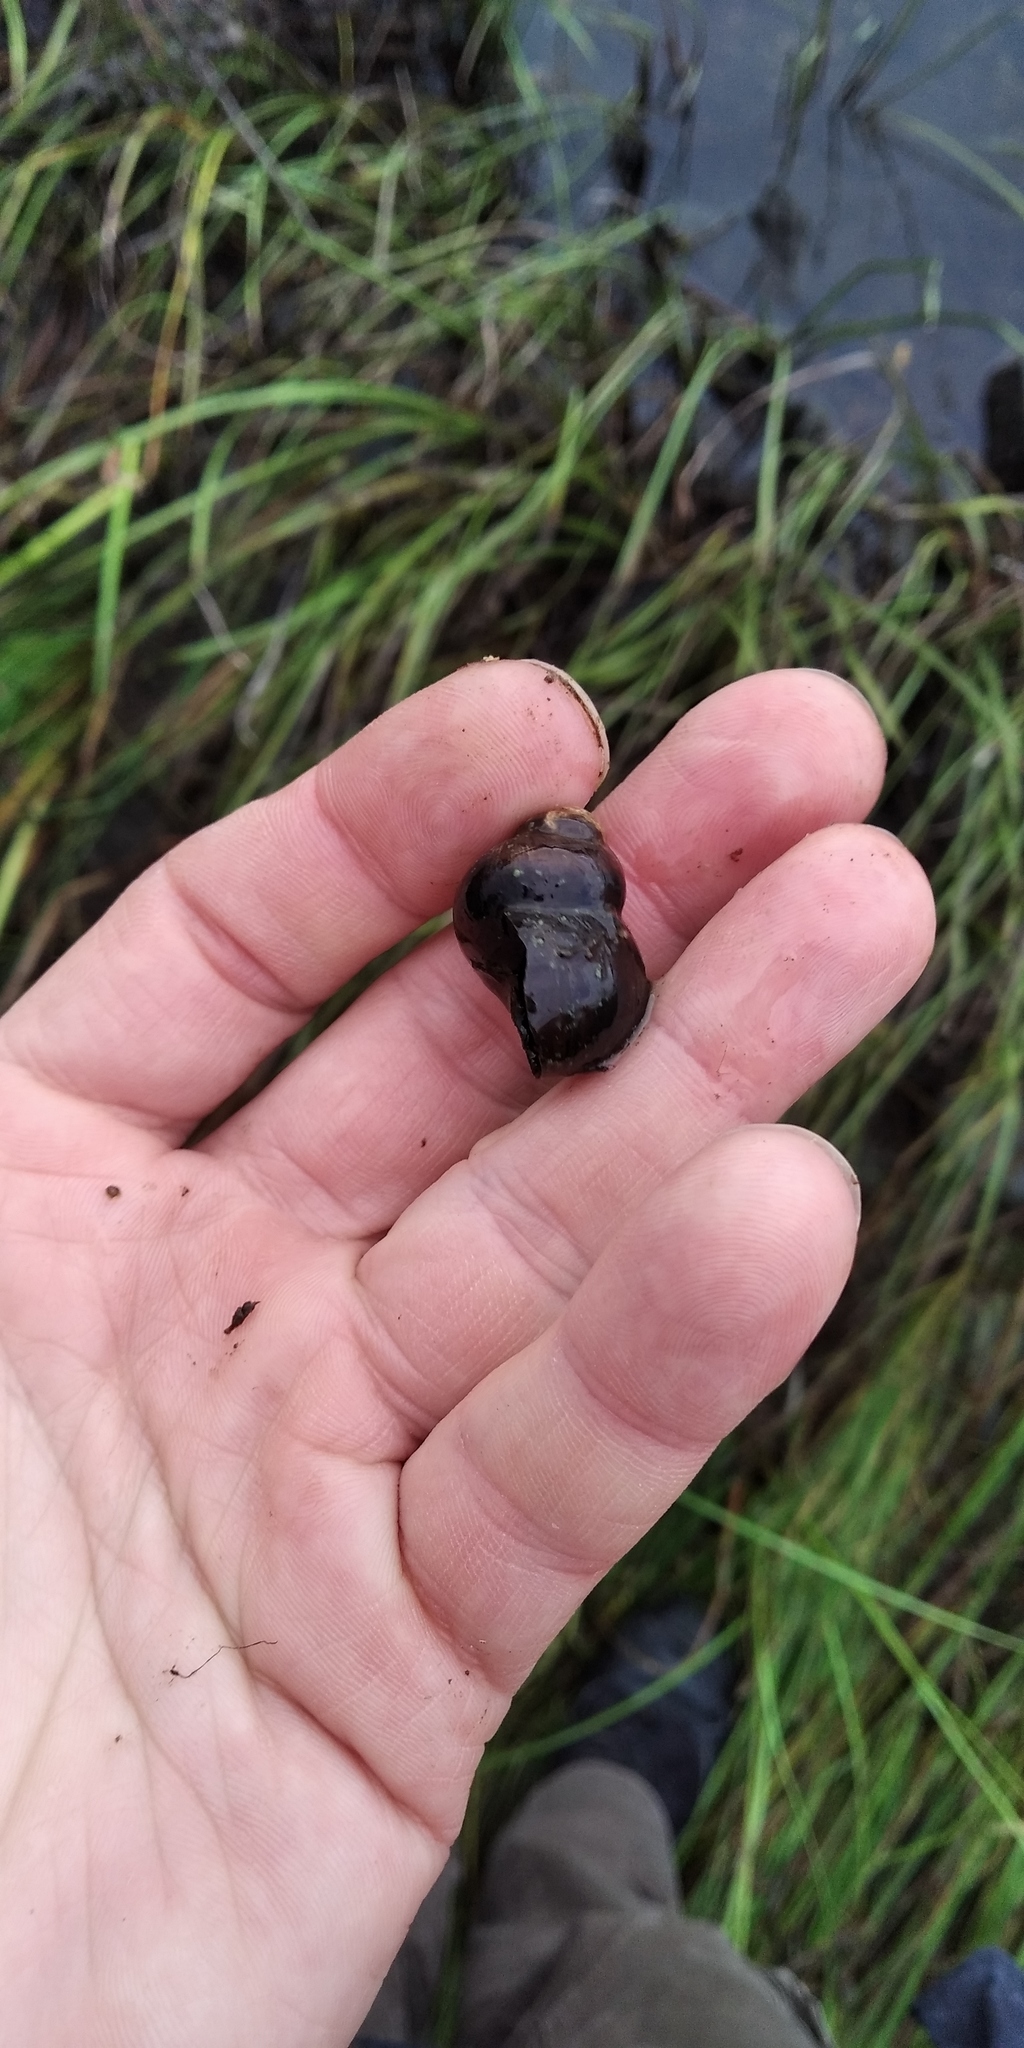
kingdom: Animalia
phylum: Mollusca
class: Gastropoda
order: Architaenioglossa
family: Viviparidae
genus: Viviparus
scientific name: Viviparus viviparus
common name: River snail
